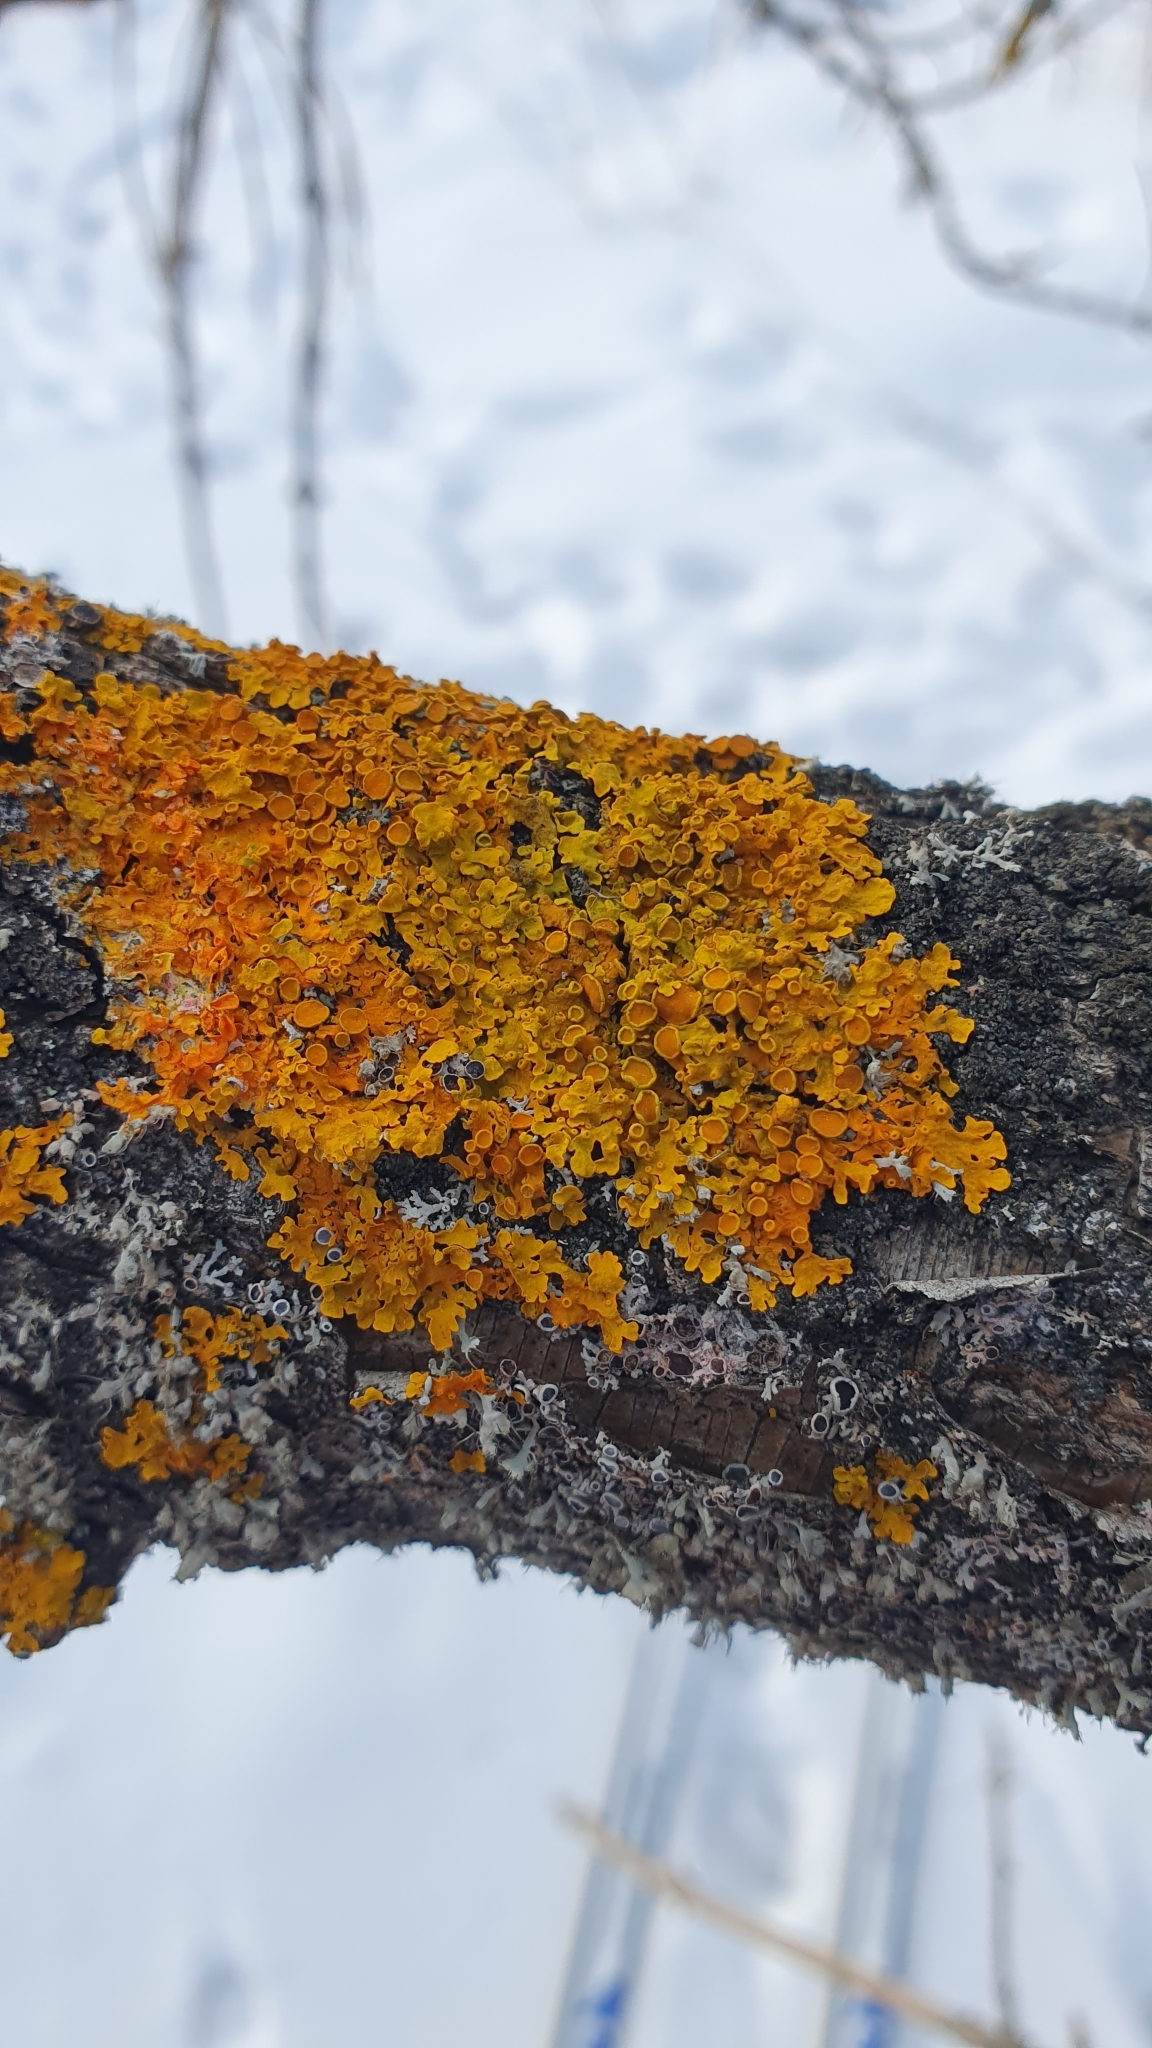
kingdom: Fungi
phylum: Ascomycota
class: Lecanoromycetes
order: Teloschistales
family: Teloschistaceae
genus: Xanthoria
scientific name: Xanthoria parietina
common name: Common orange lichen
